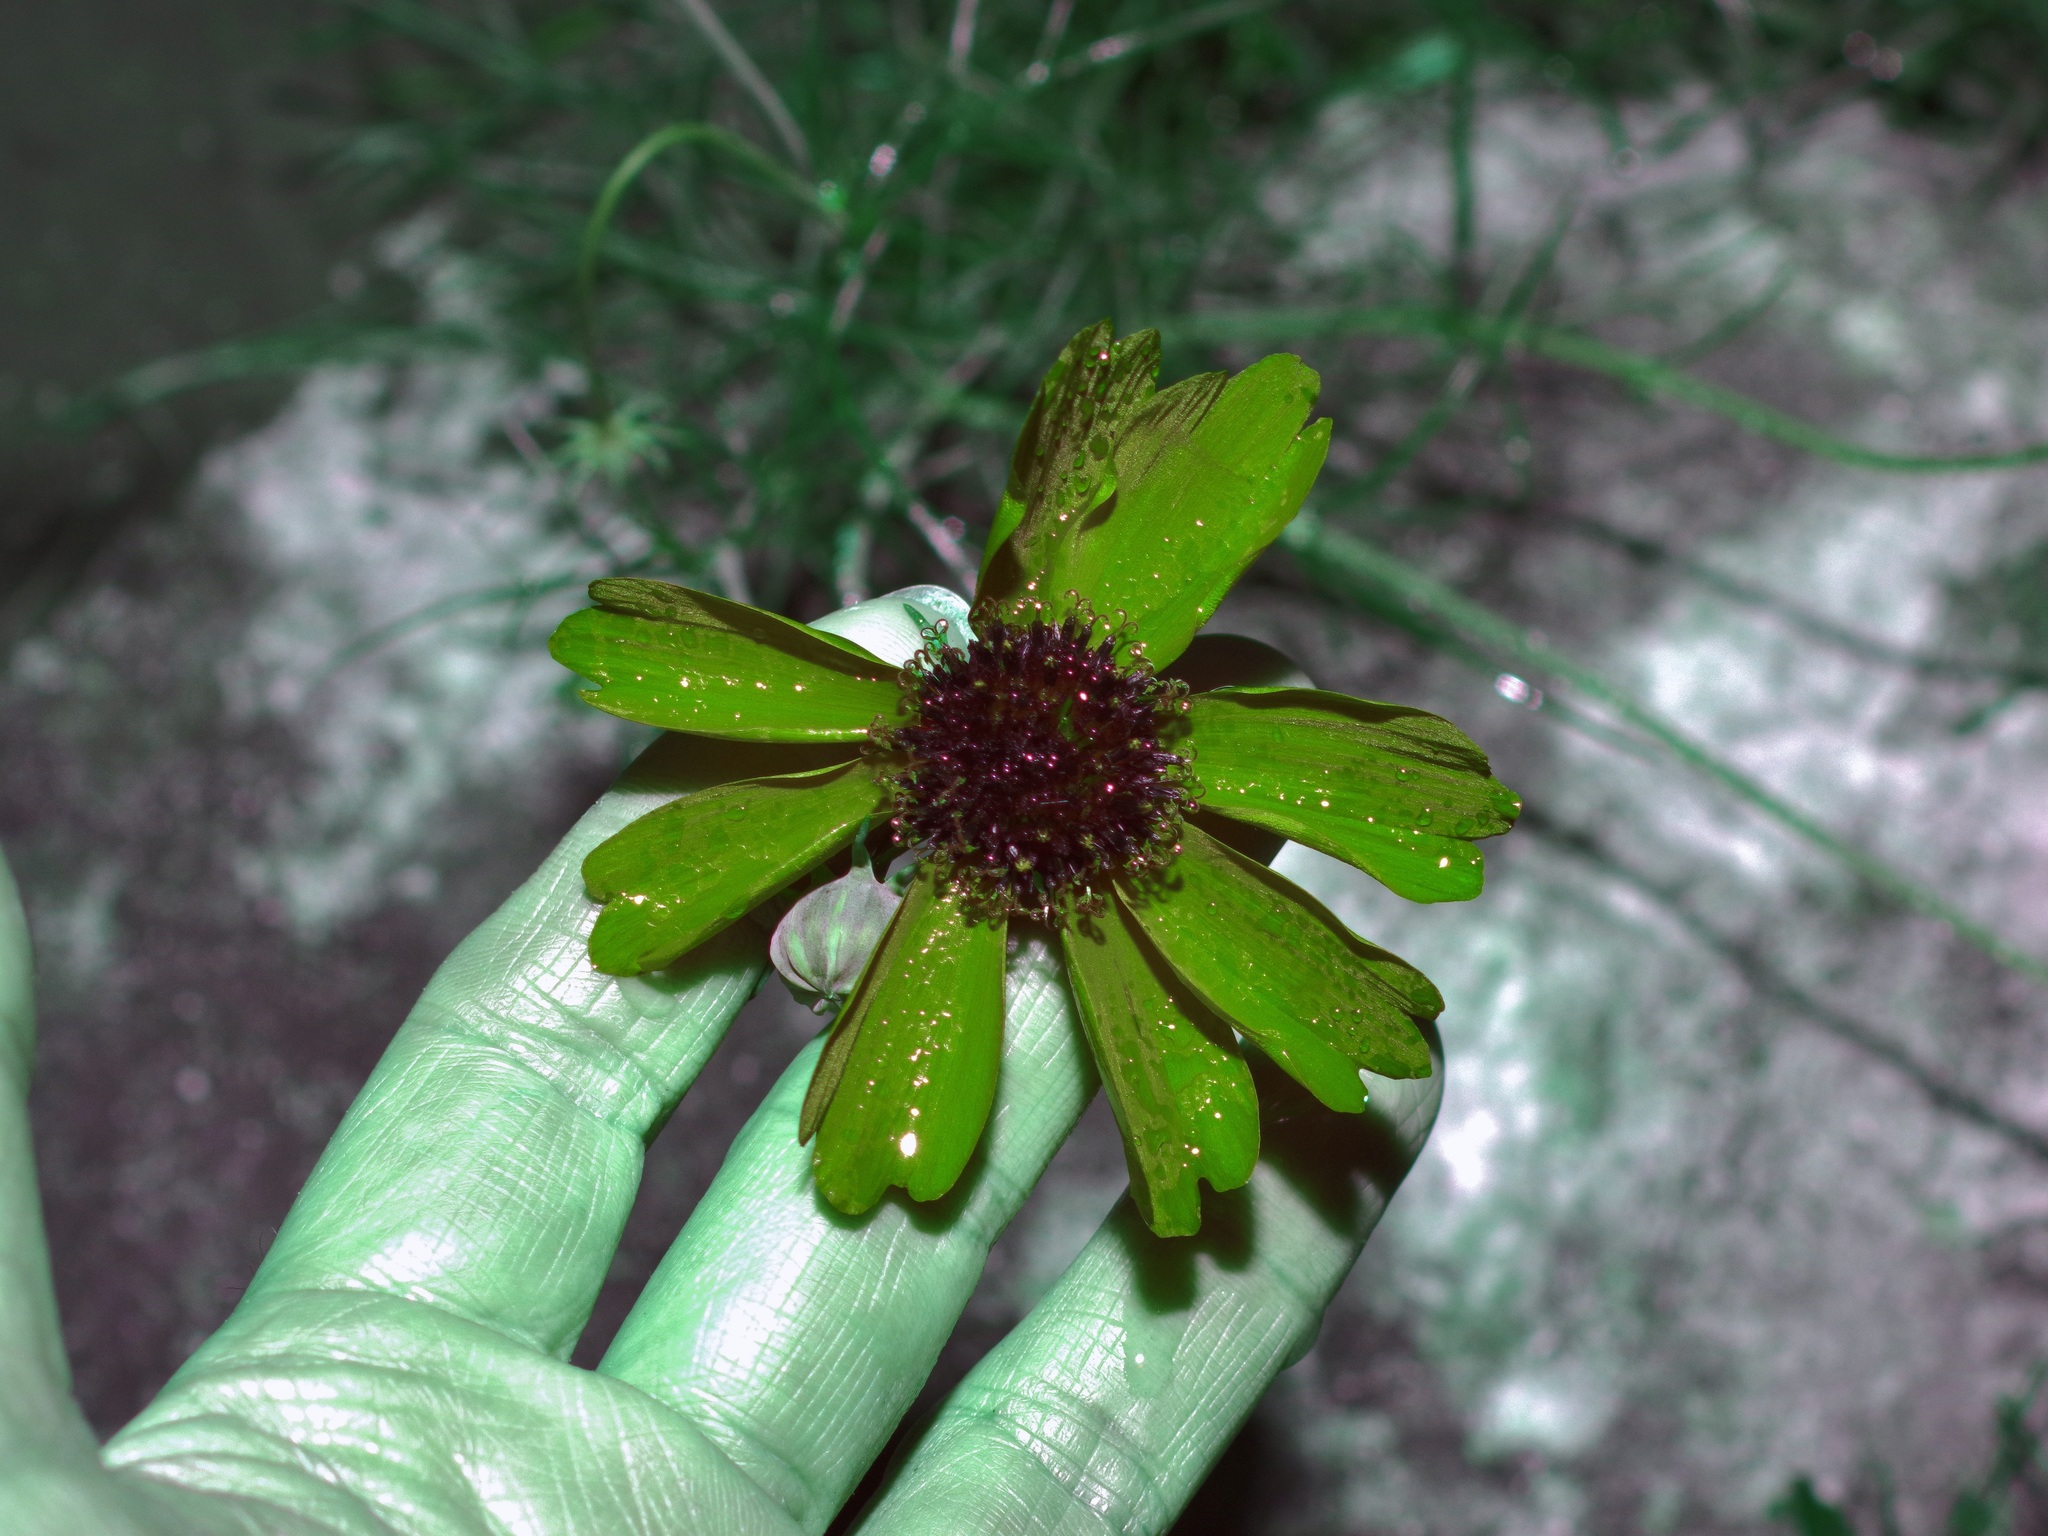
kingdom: Plantae
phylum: Tracheophyta
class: Magnoliopsida
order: Asterales
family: Asteraceae
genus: Thelesperma
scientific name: Thelesperma filifolium
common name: Stiff greenthread
